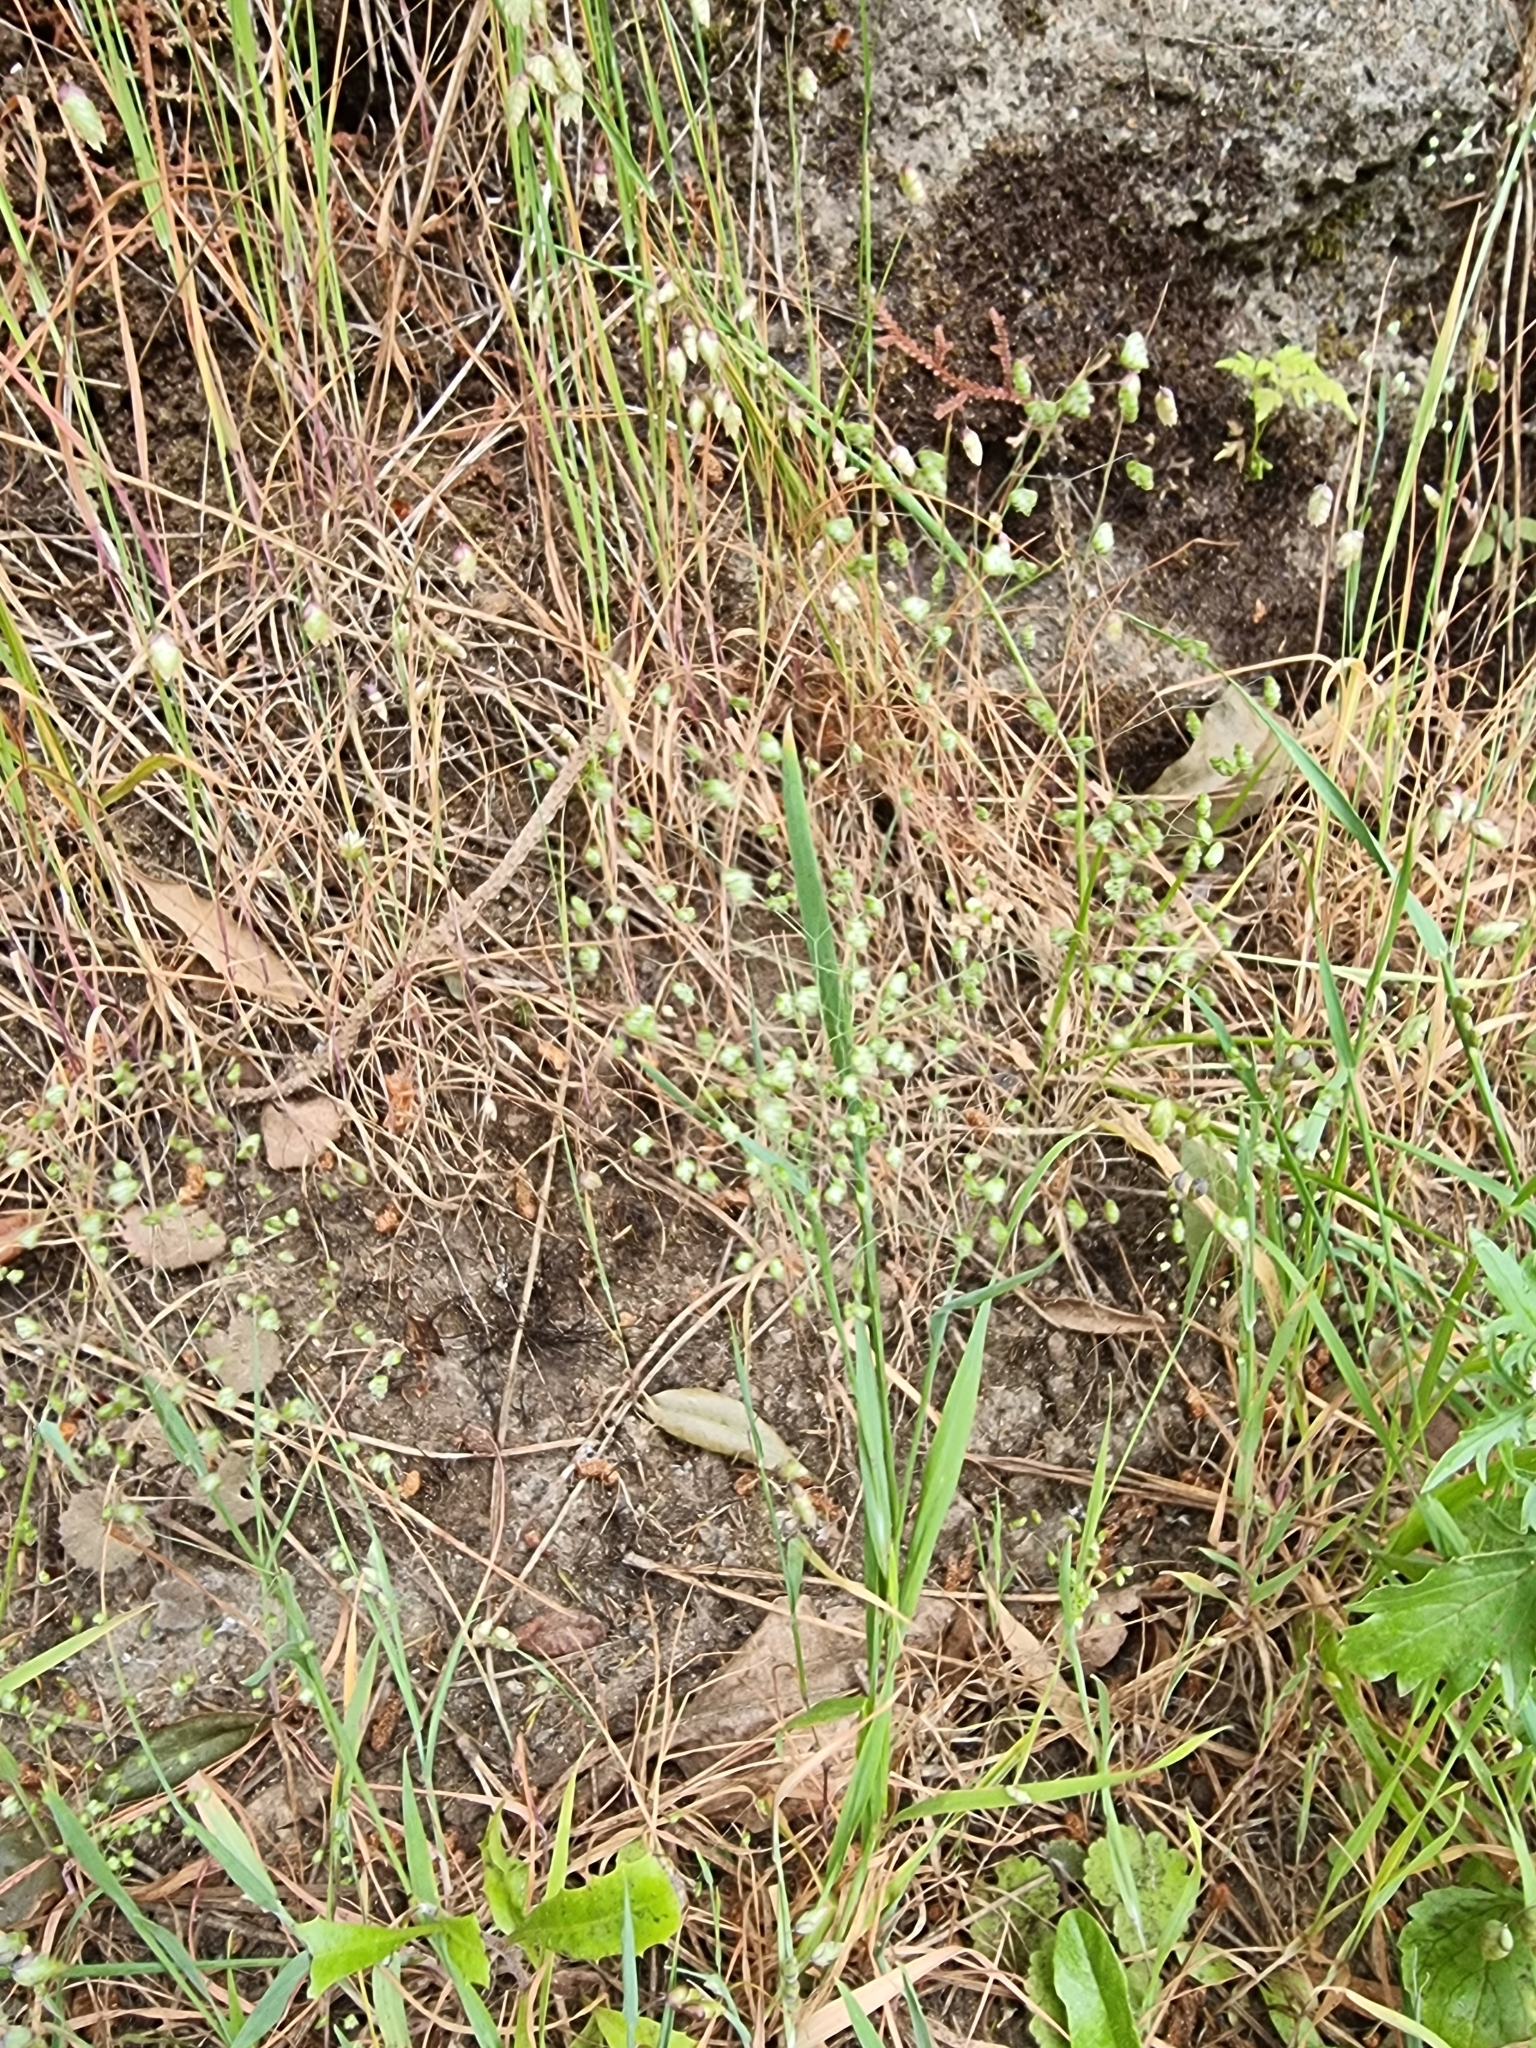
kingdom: Plantae
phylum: Tracheophyta
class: Liliopsida
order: Poales
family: Poaceae
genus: Briza
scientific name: Briza minor
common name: Lesser quaking-grass
